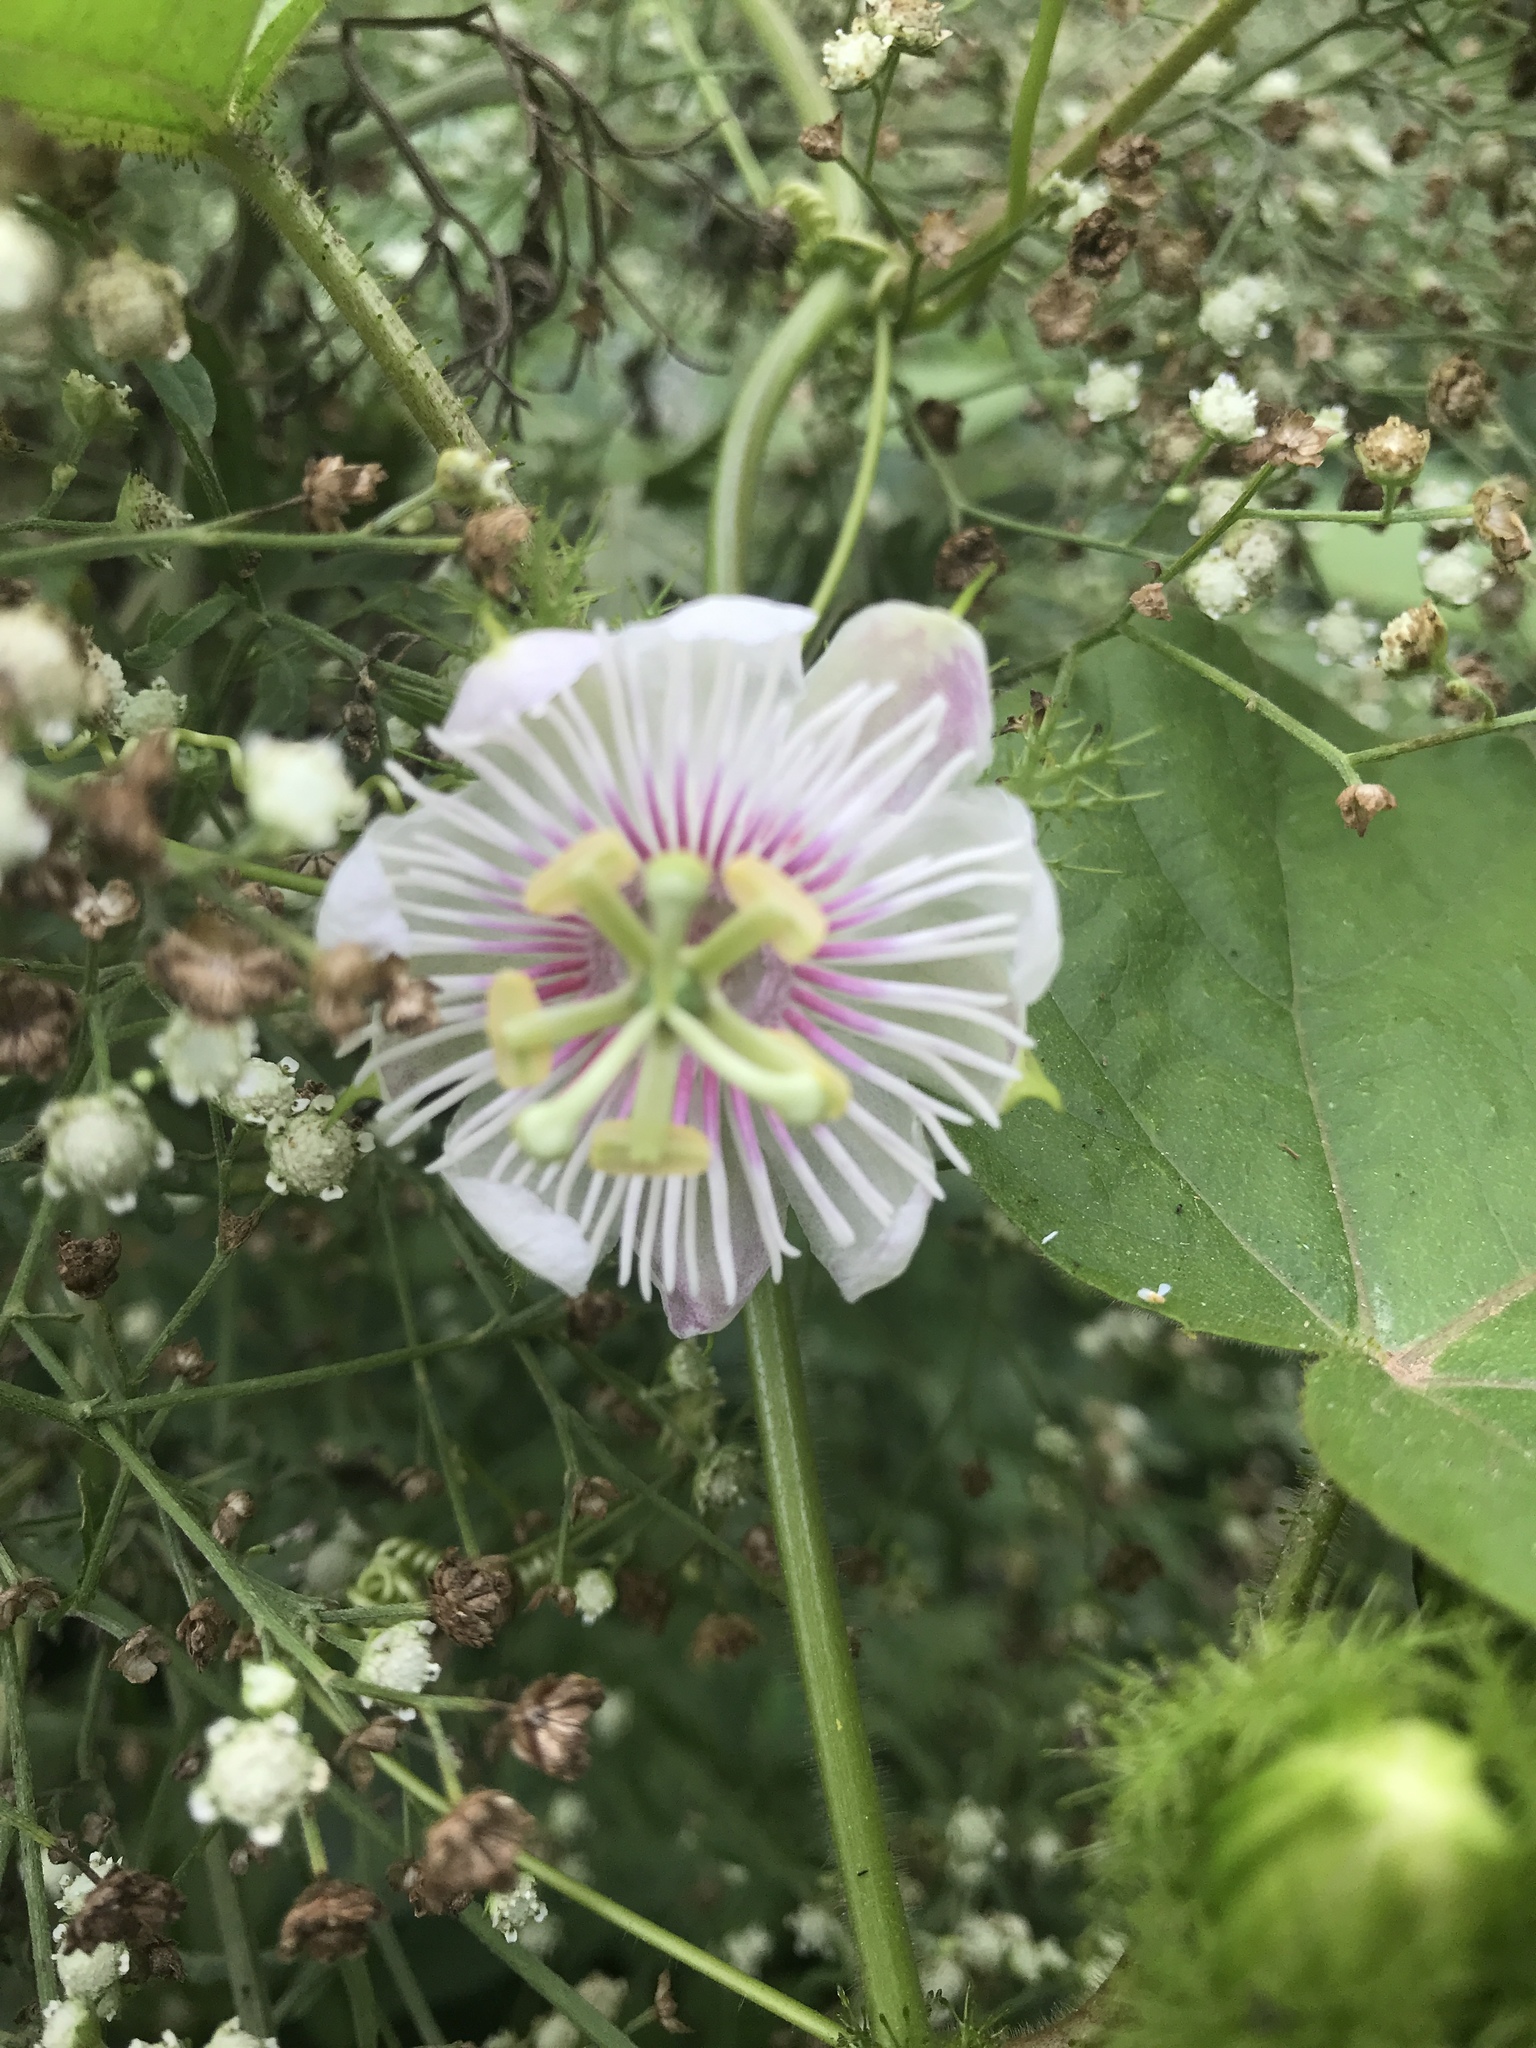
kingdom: Plantae
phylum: Tracheophyta
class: Magnoliopsida
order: Malpighiales
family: Passifloraceae
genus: Passiflora
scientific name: Passiflora foetida
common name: Fetid passionflower
